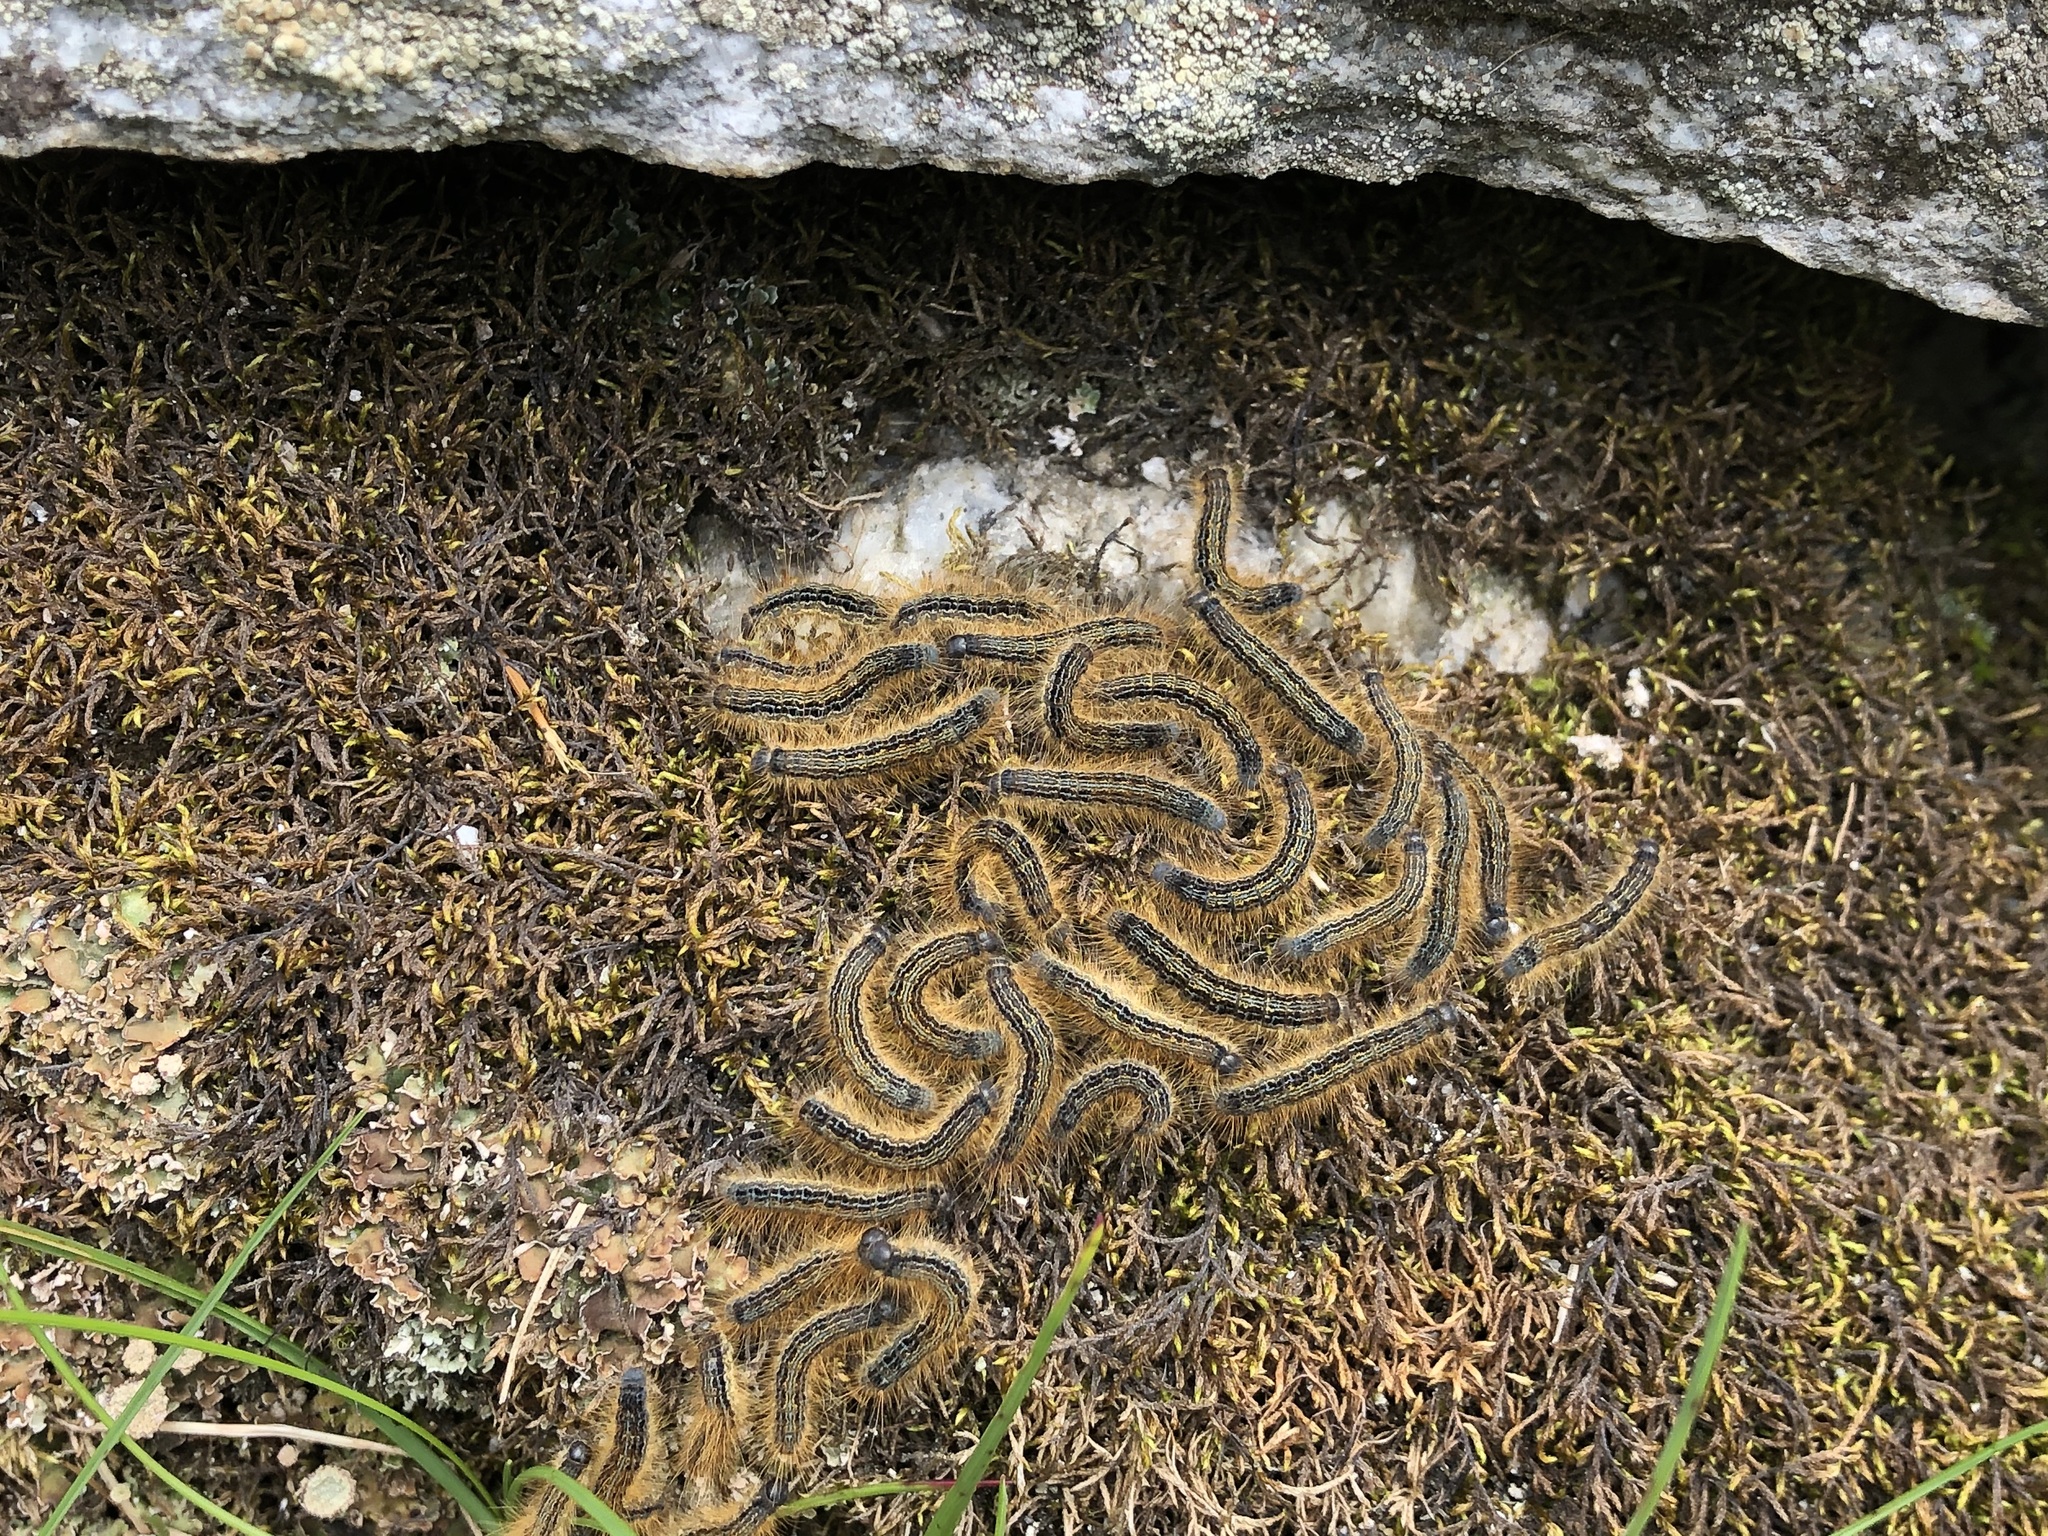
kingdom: Animalia
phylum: Arthropoda
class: Insecta
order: Lepidoptera
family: Lasiocampidae
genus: Malacosoma
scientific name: Malacosoma alpicola
